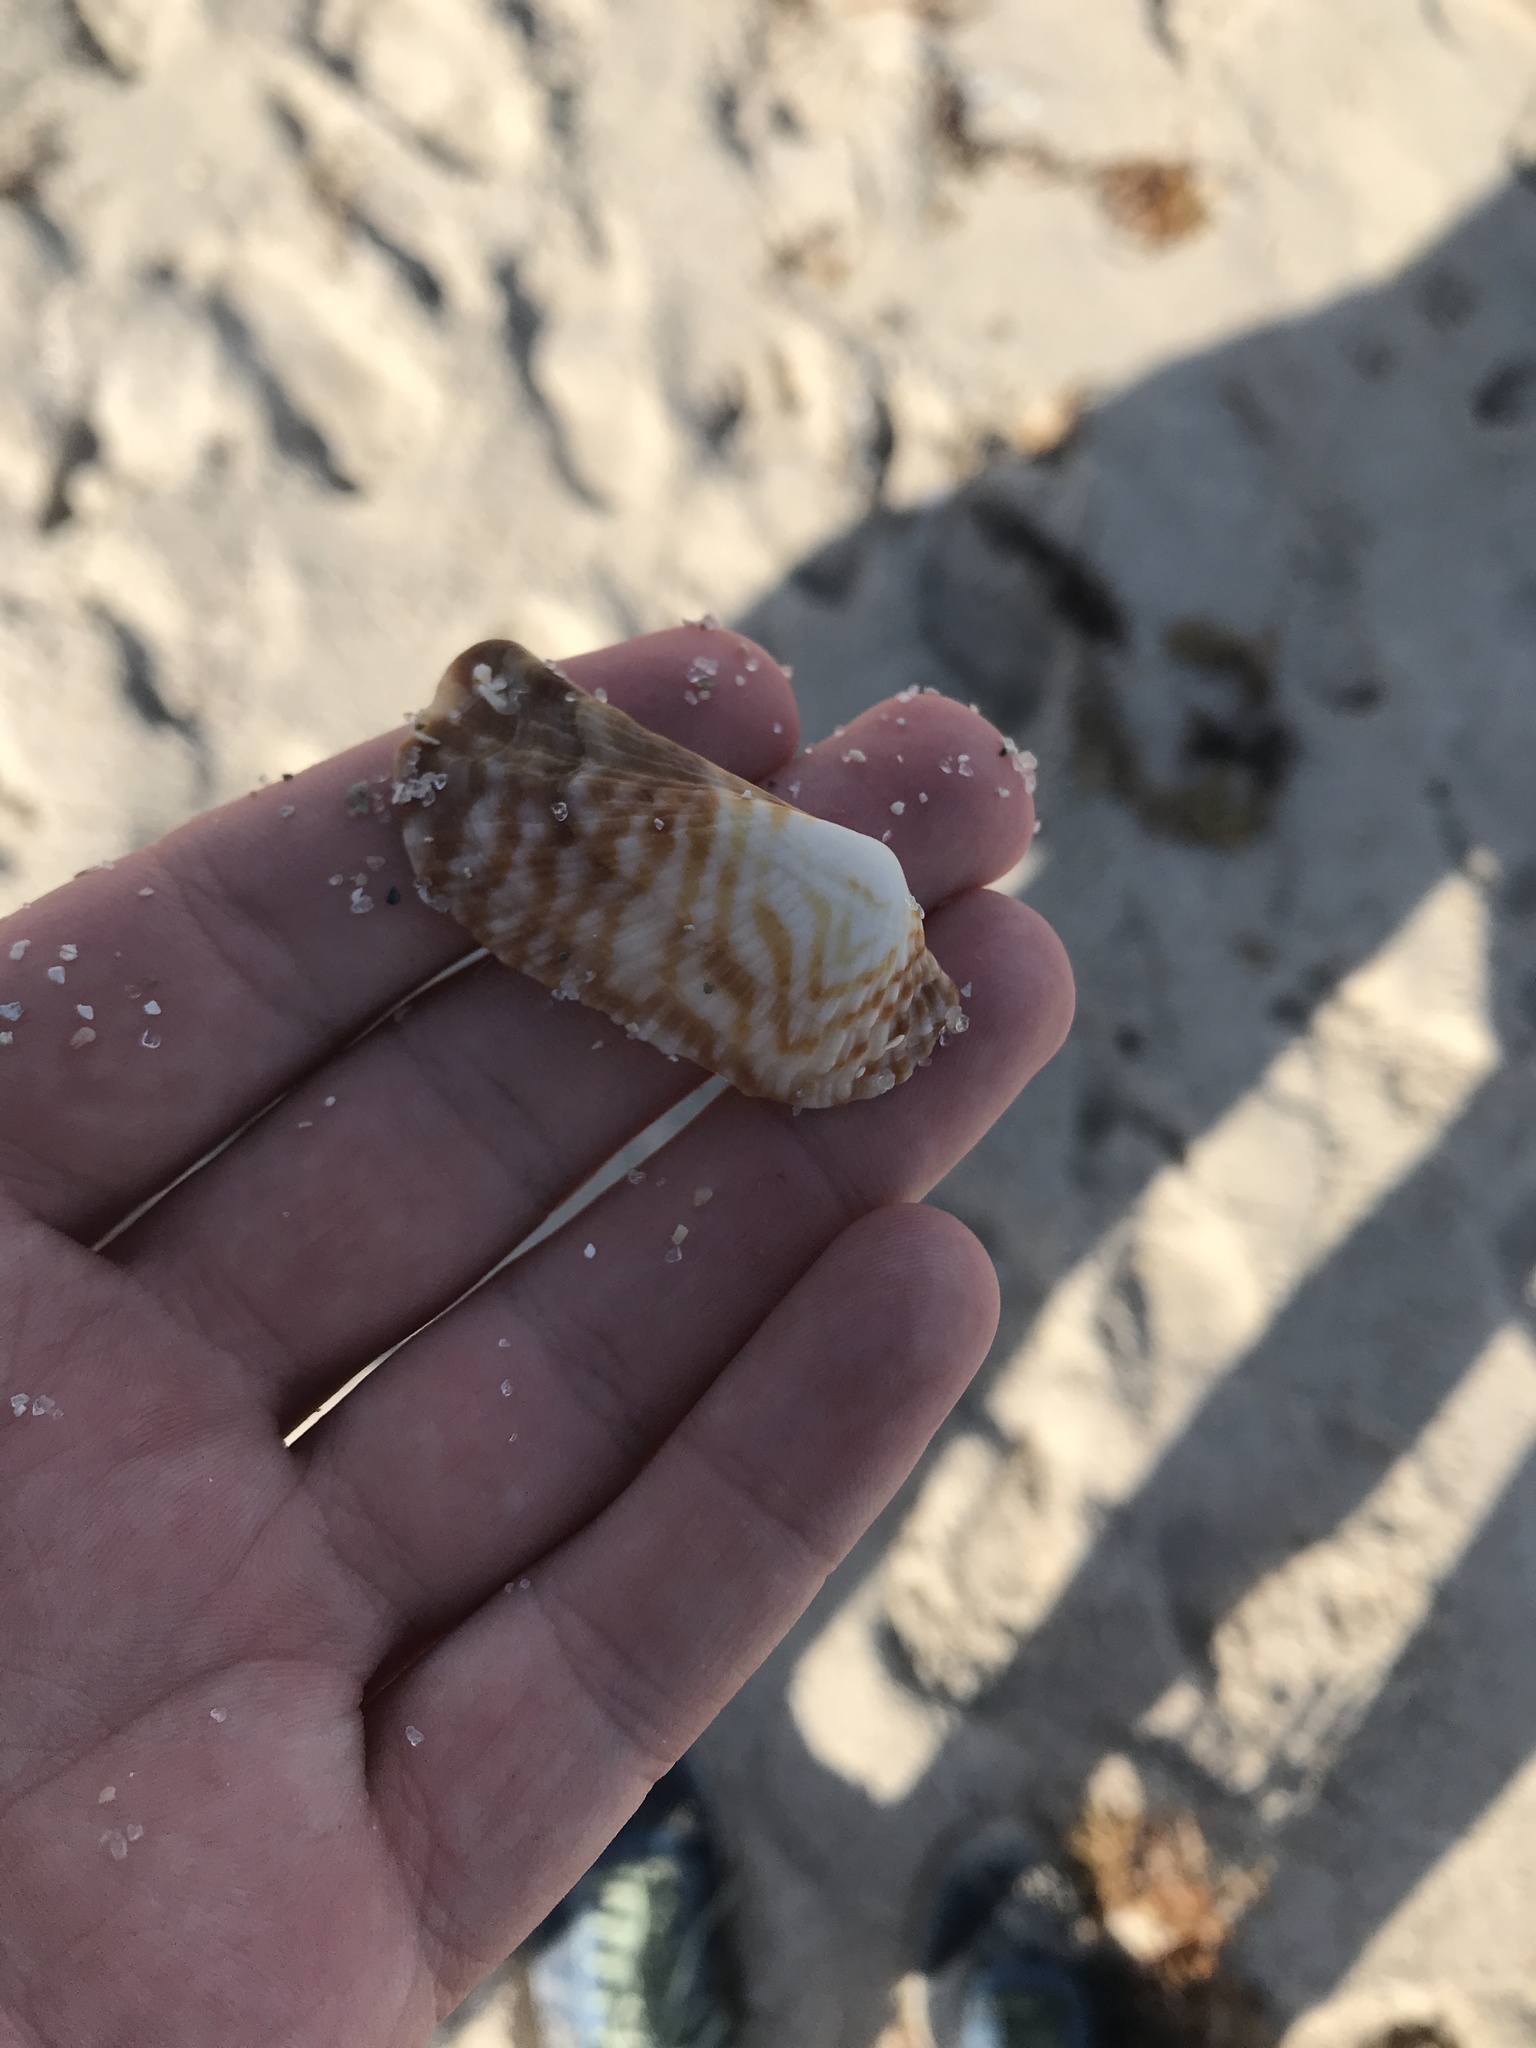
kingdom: Animalia
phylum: Mollusca
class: Bivalvia
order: Arcida
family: Arcidae
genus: Arca
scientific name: Arca zebra
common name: Atlantic turkey wing
